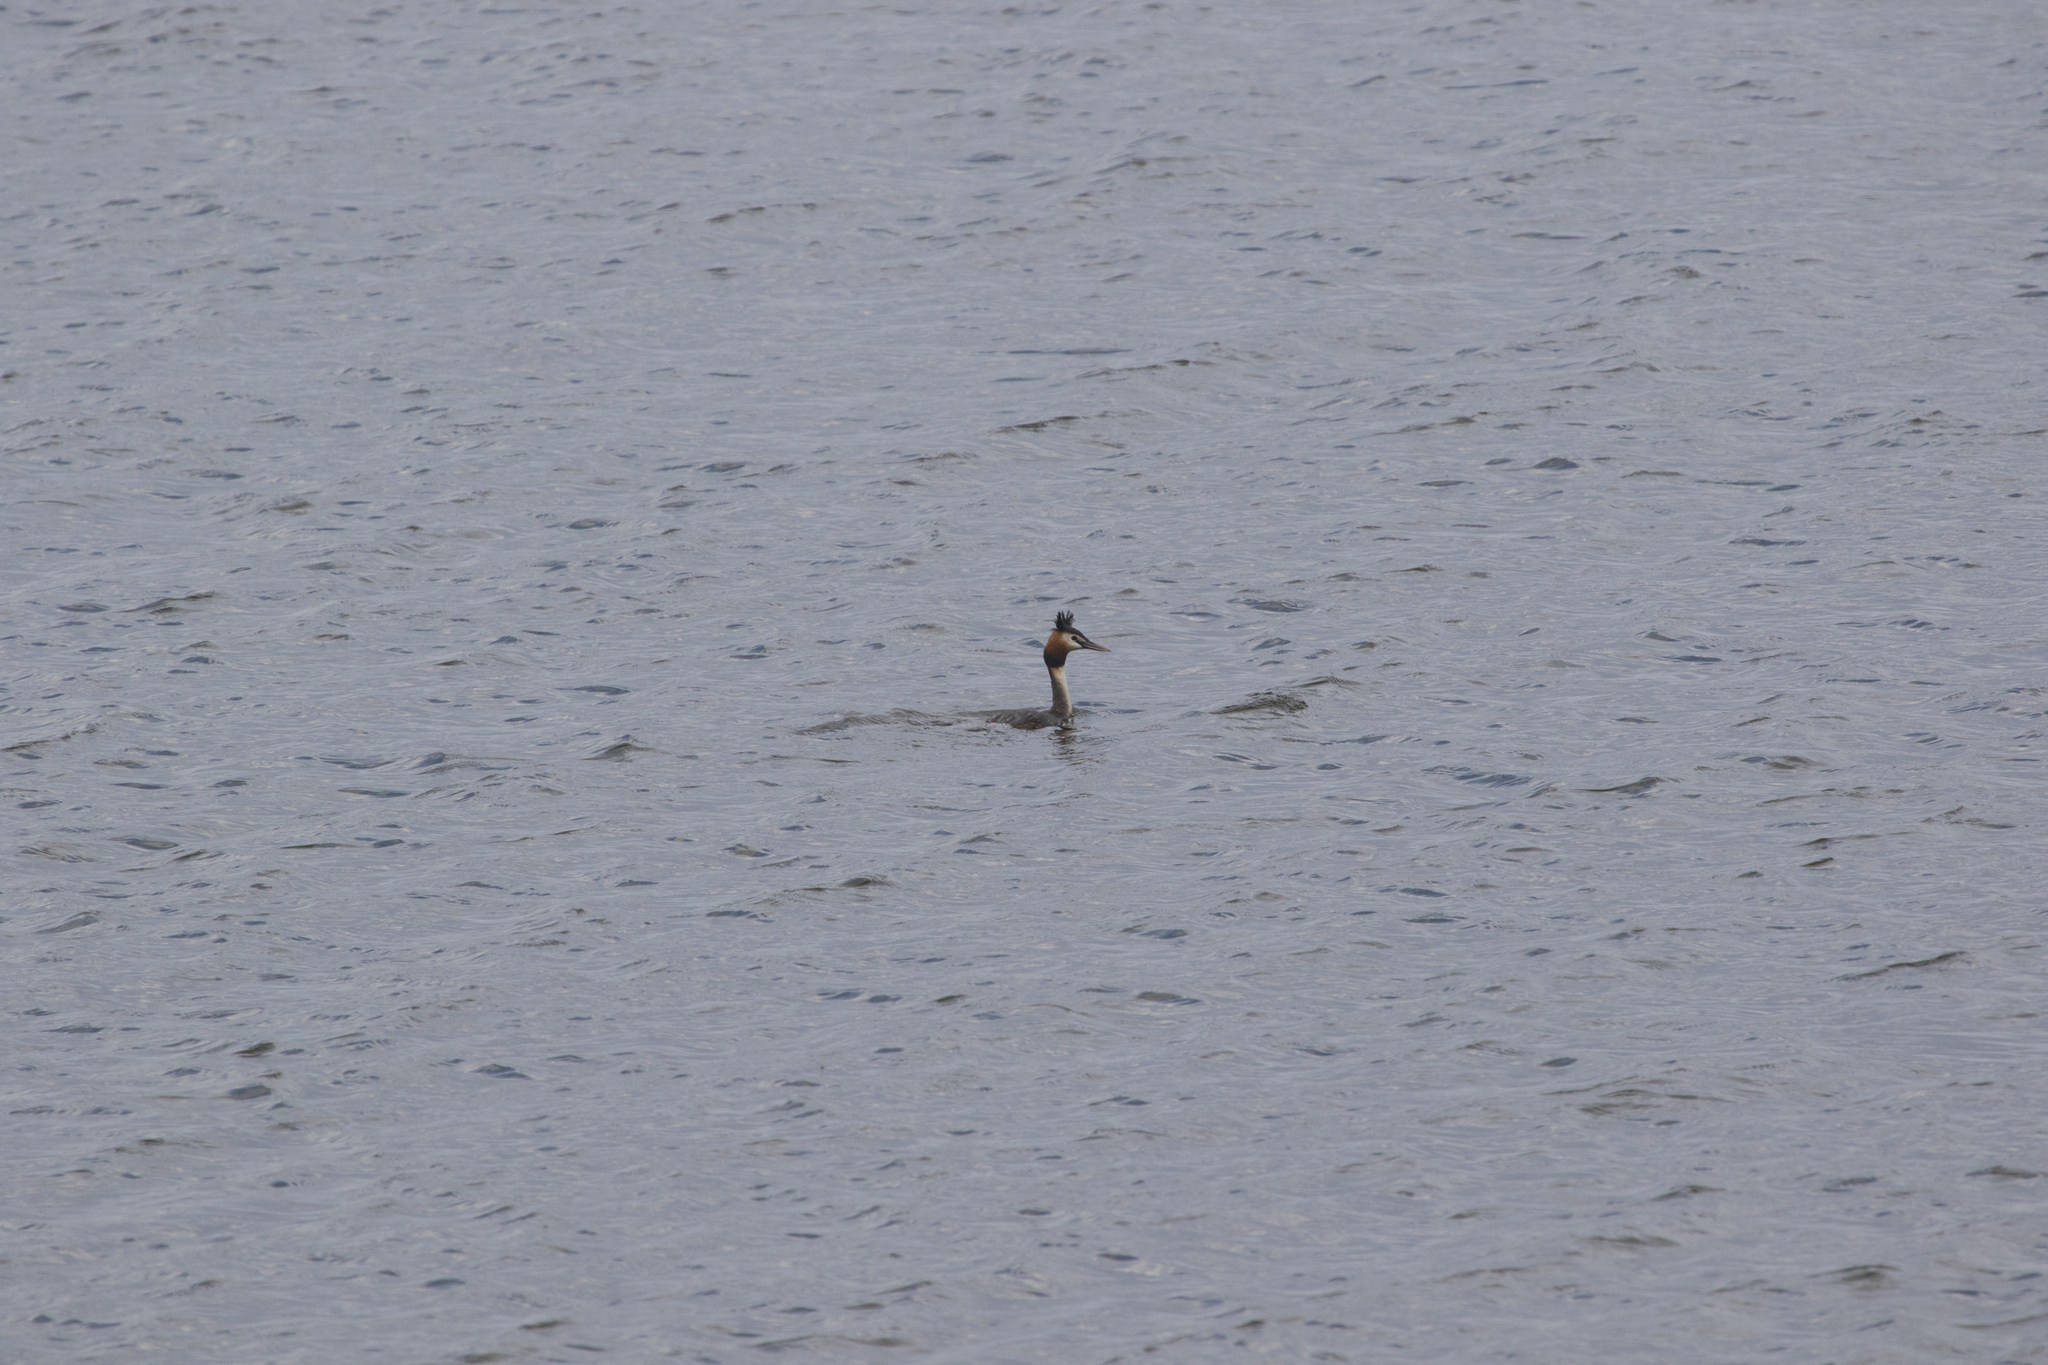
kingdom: Animalia
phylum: Chordata
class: Aves
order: Podicipediformes
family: Podicipedidae
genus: Podiceps
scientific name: Podiceps cristatus
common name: Great crested grebe
